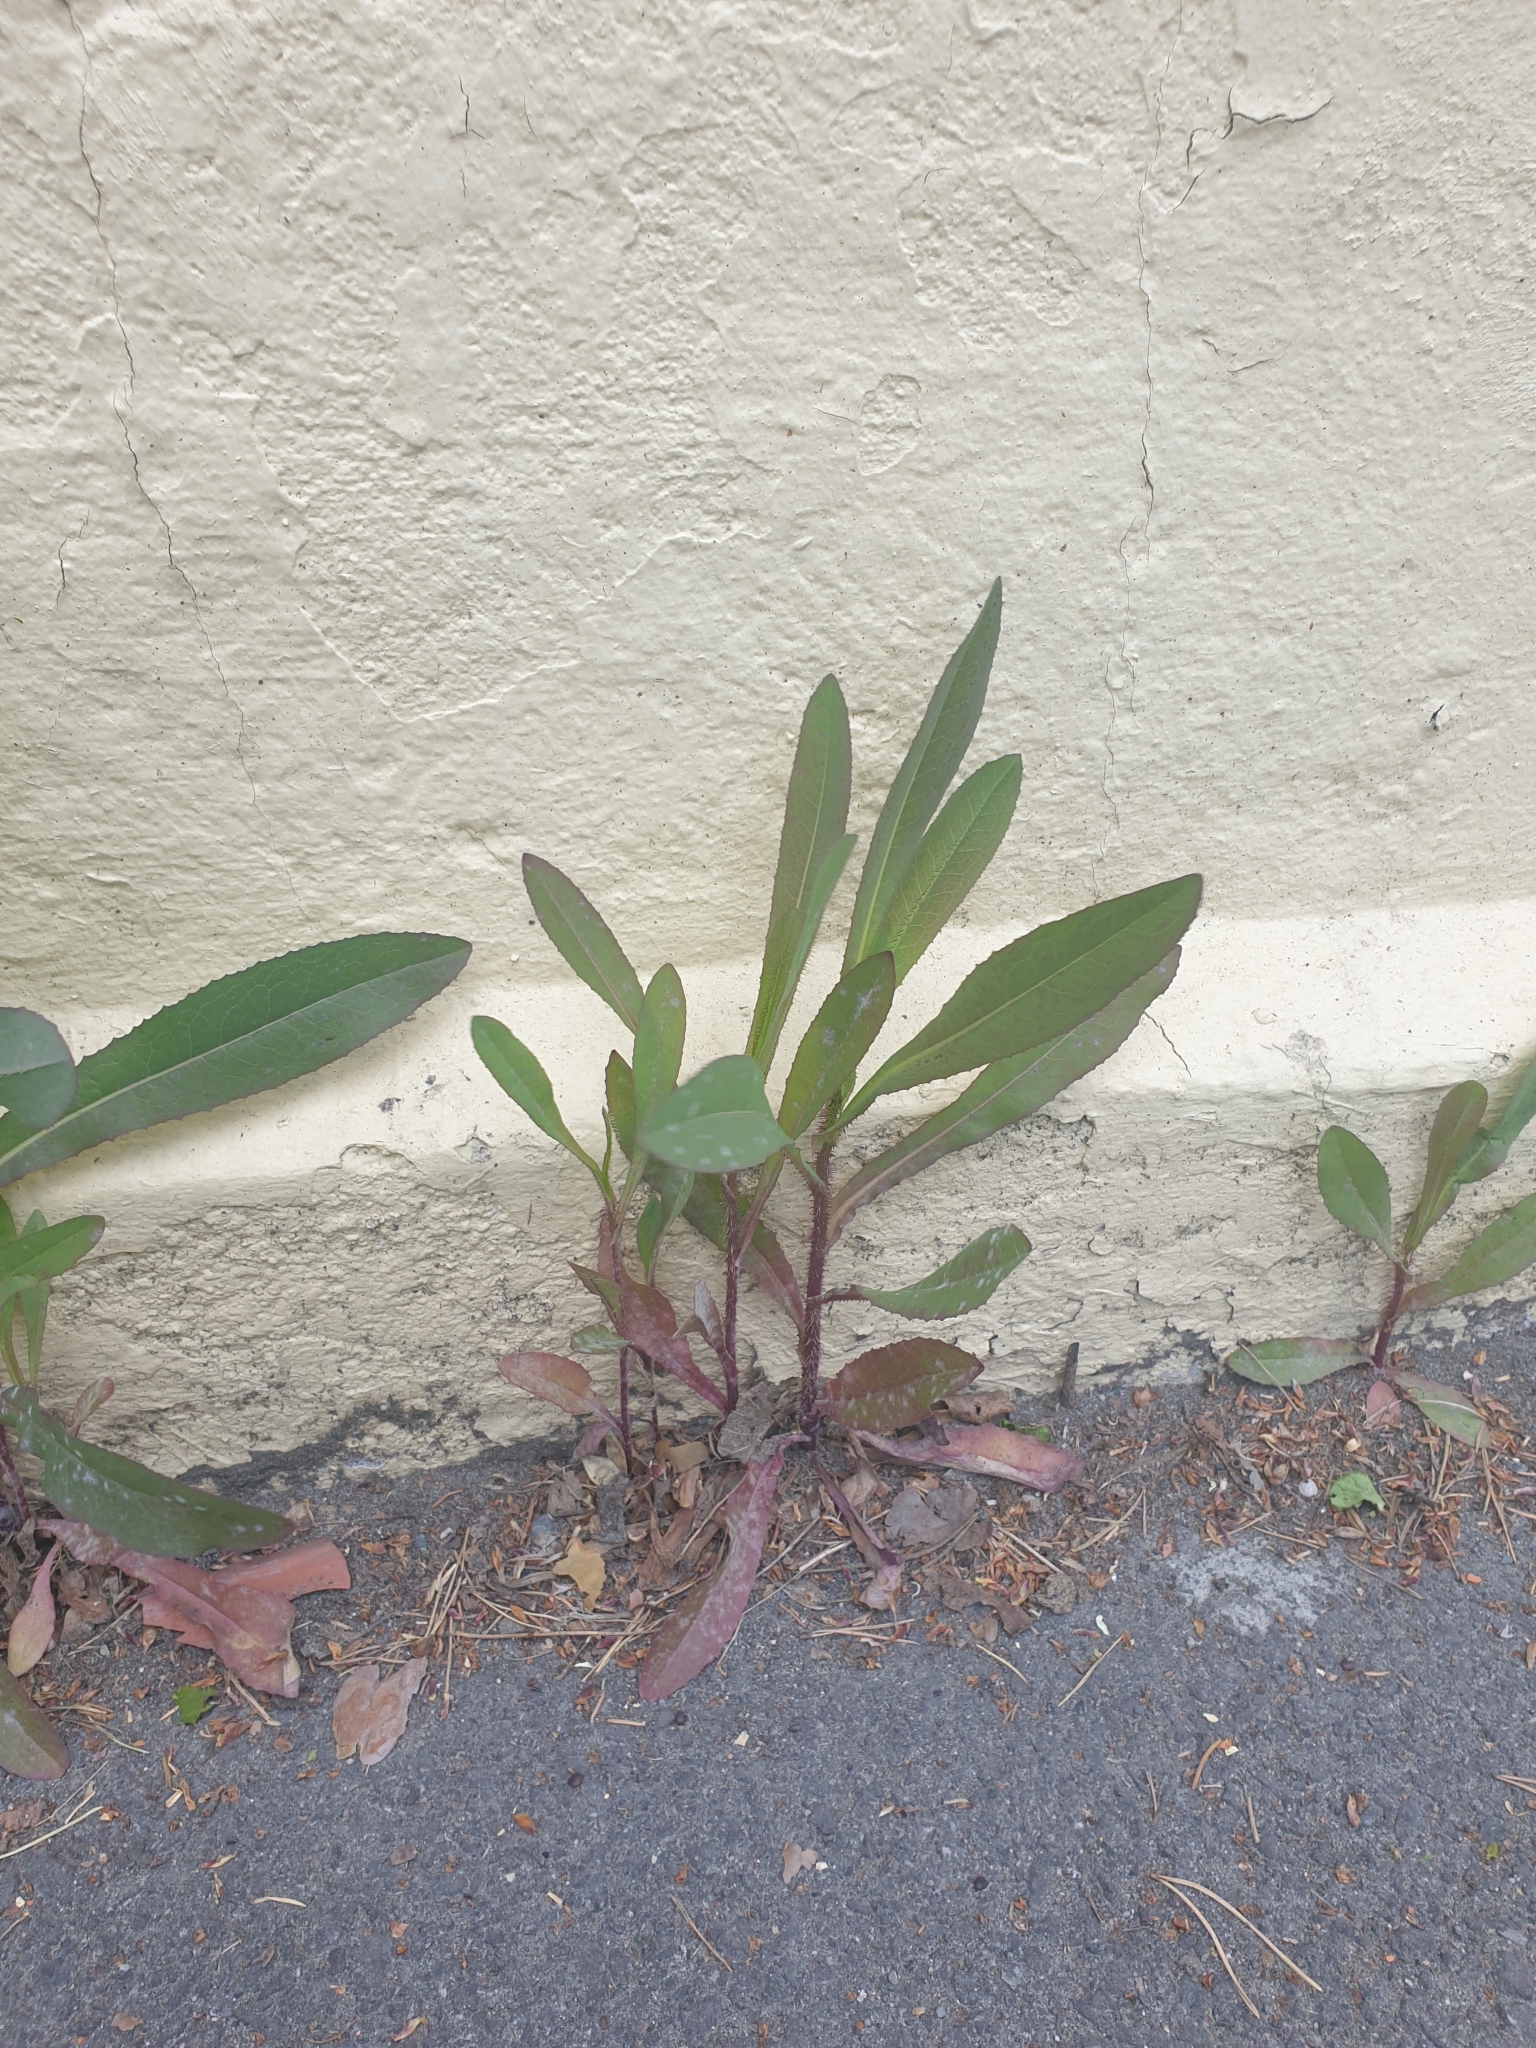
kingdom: Plantae
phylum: Tracheophyta
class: Magnoliopsida
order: Asterales
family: Asteraceae
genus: Lactuca
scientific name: Lactuca serriola
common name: Prickly lettuce
